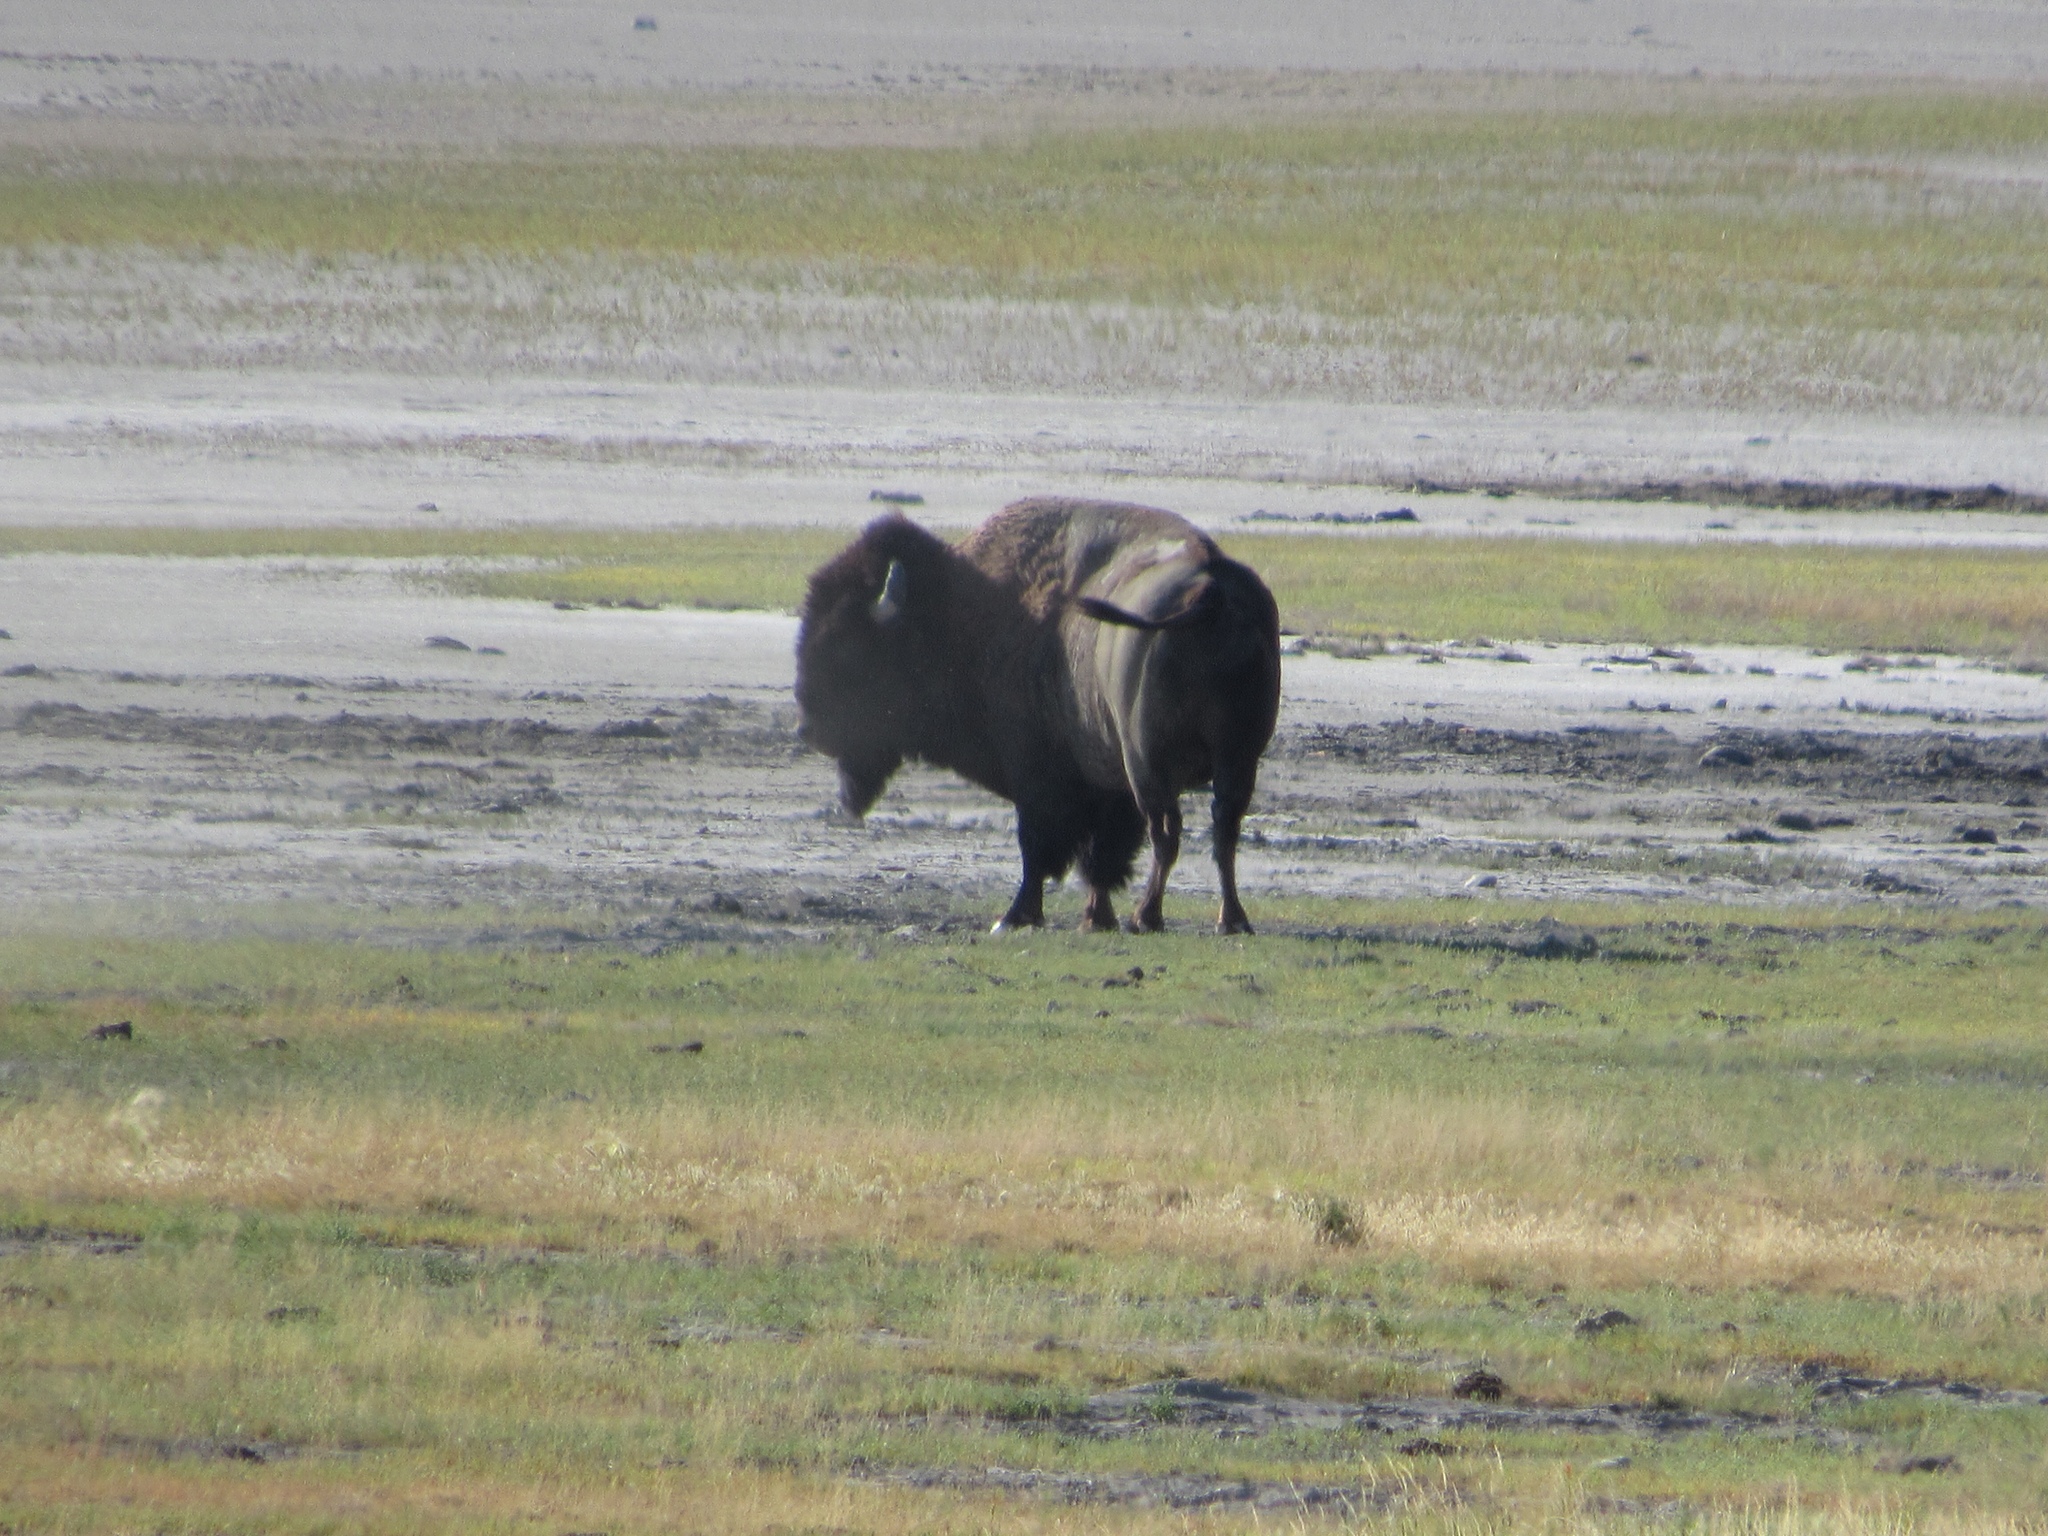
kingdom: Animalia
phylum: Chordata
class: Mammalia
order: Artiodactyla
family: Bovidae
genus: Bison
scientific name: Bison bison
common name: American bison
